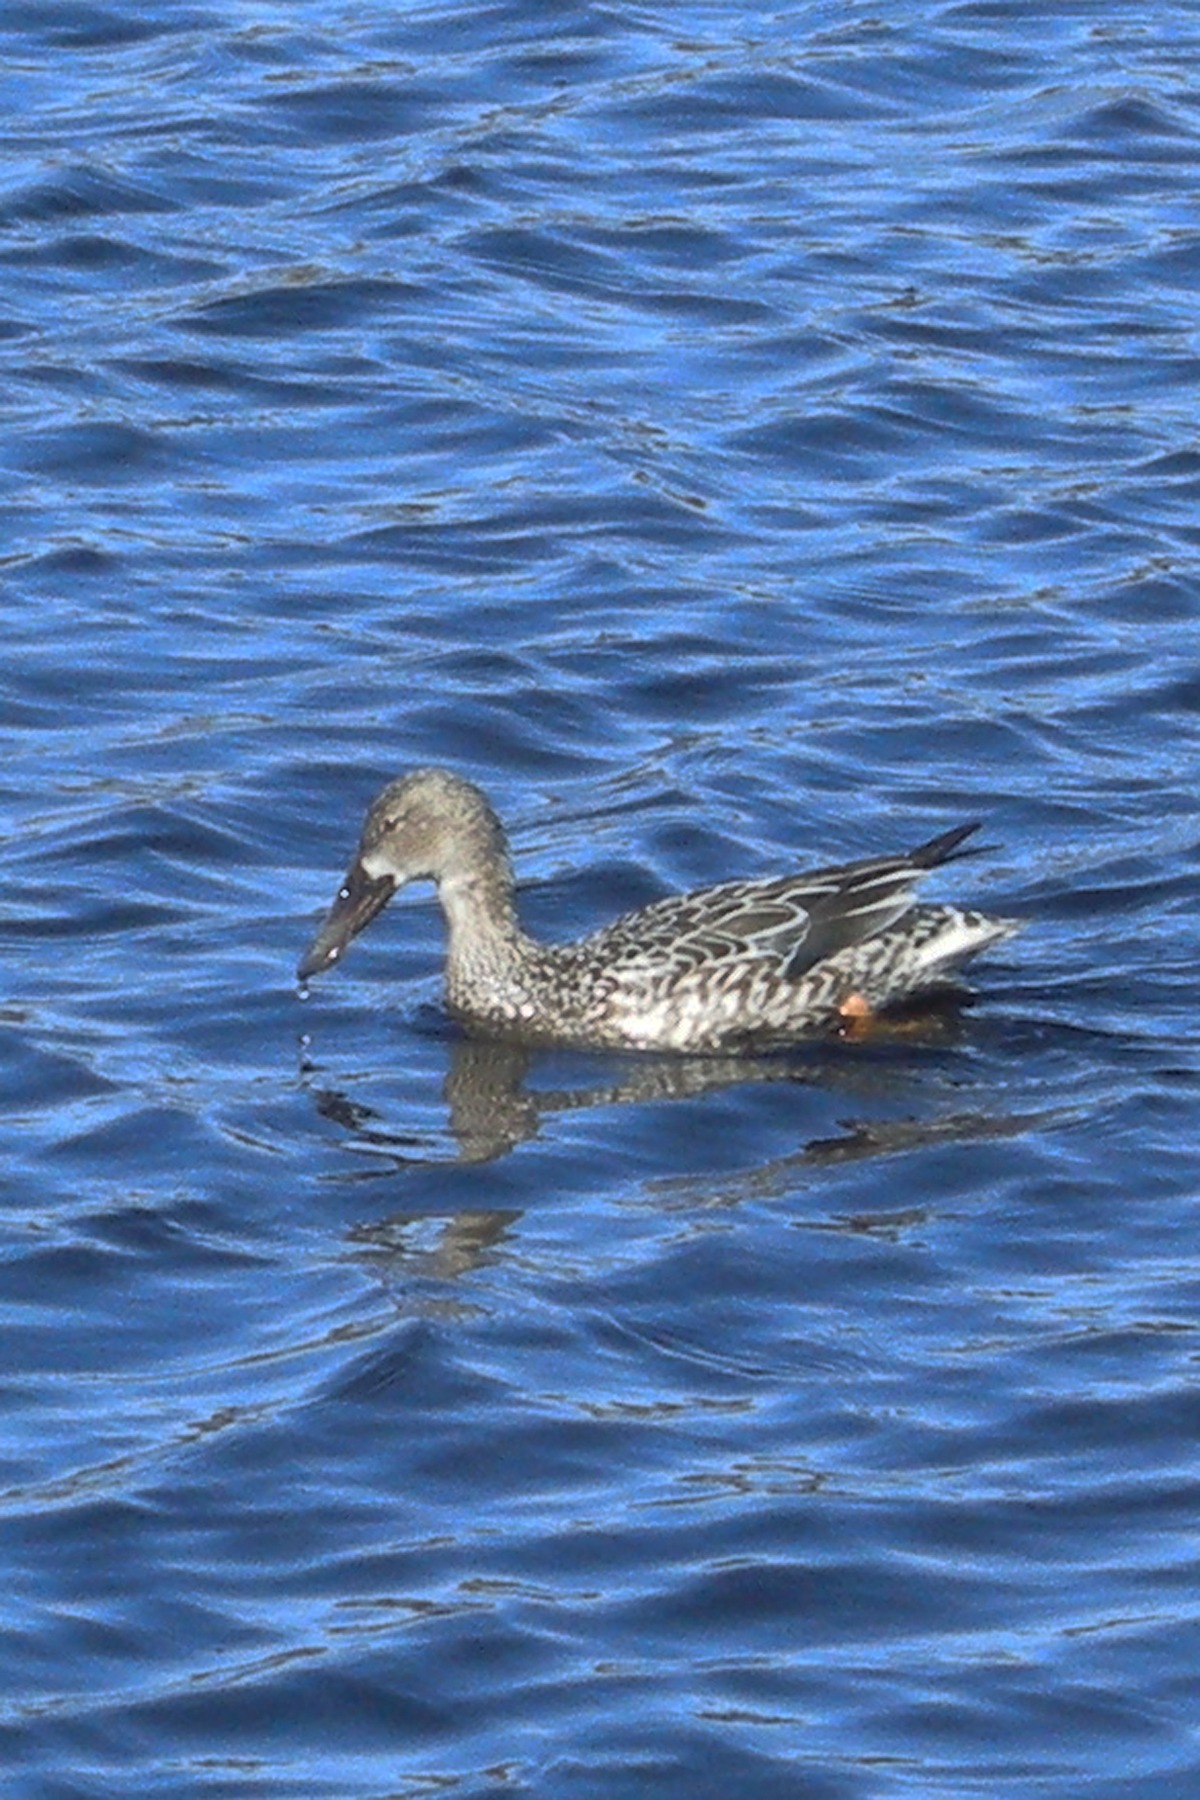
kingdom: Animalia
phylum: Chordata
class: Aves
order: Anseriformes
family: Anatidae
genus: Spatula
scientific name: Spatula clypeata
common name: Northern shoveler
